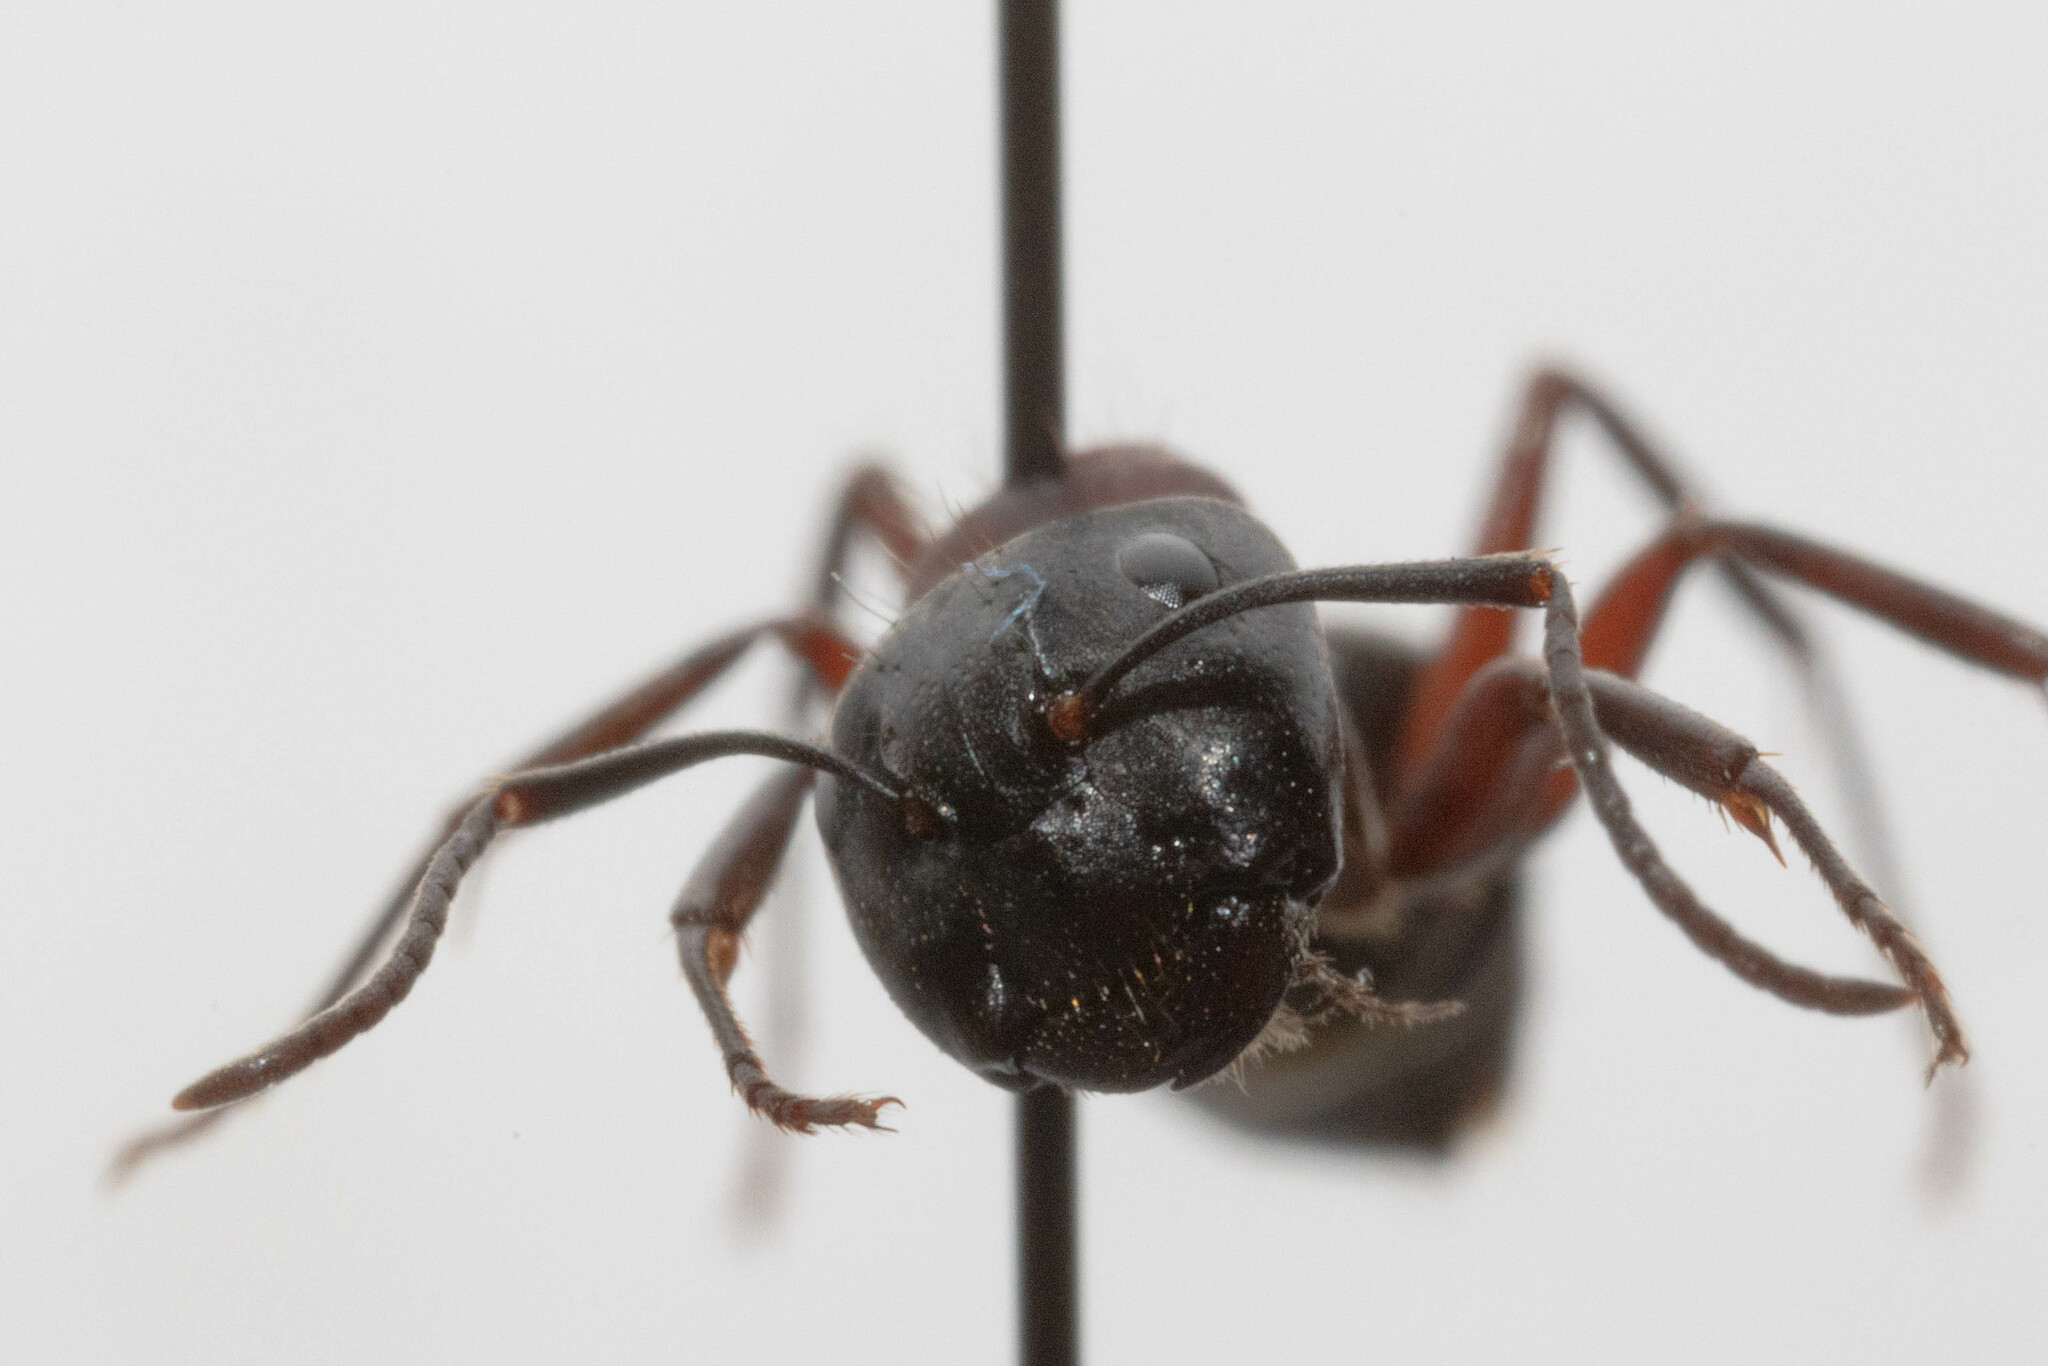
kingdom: Animalia
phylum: Arthropoda
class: Insecta
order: Hymenoptera
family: Formicidae
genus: Camponotus
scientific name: Camponotus novaeboracensis
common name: New york carpenter ant
